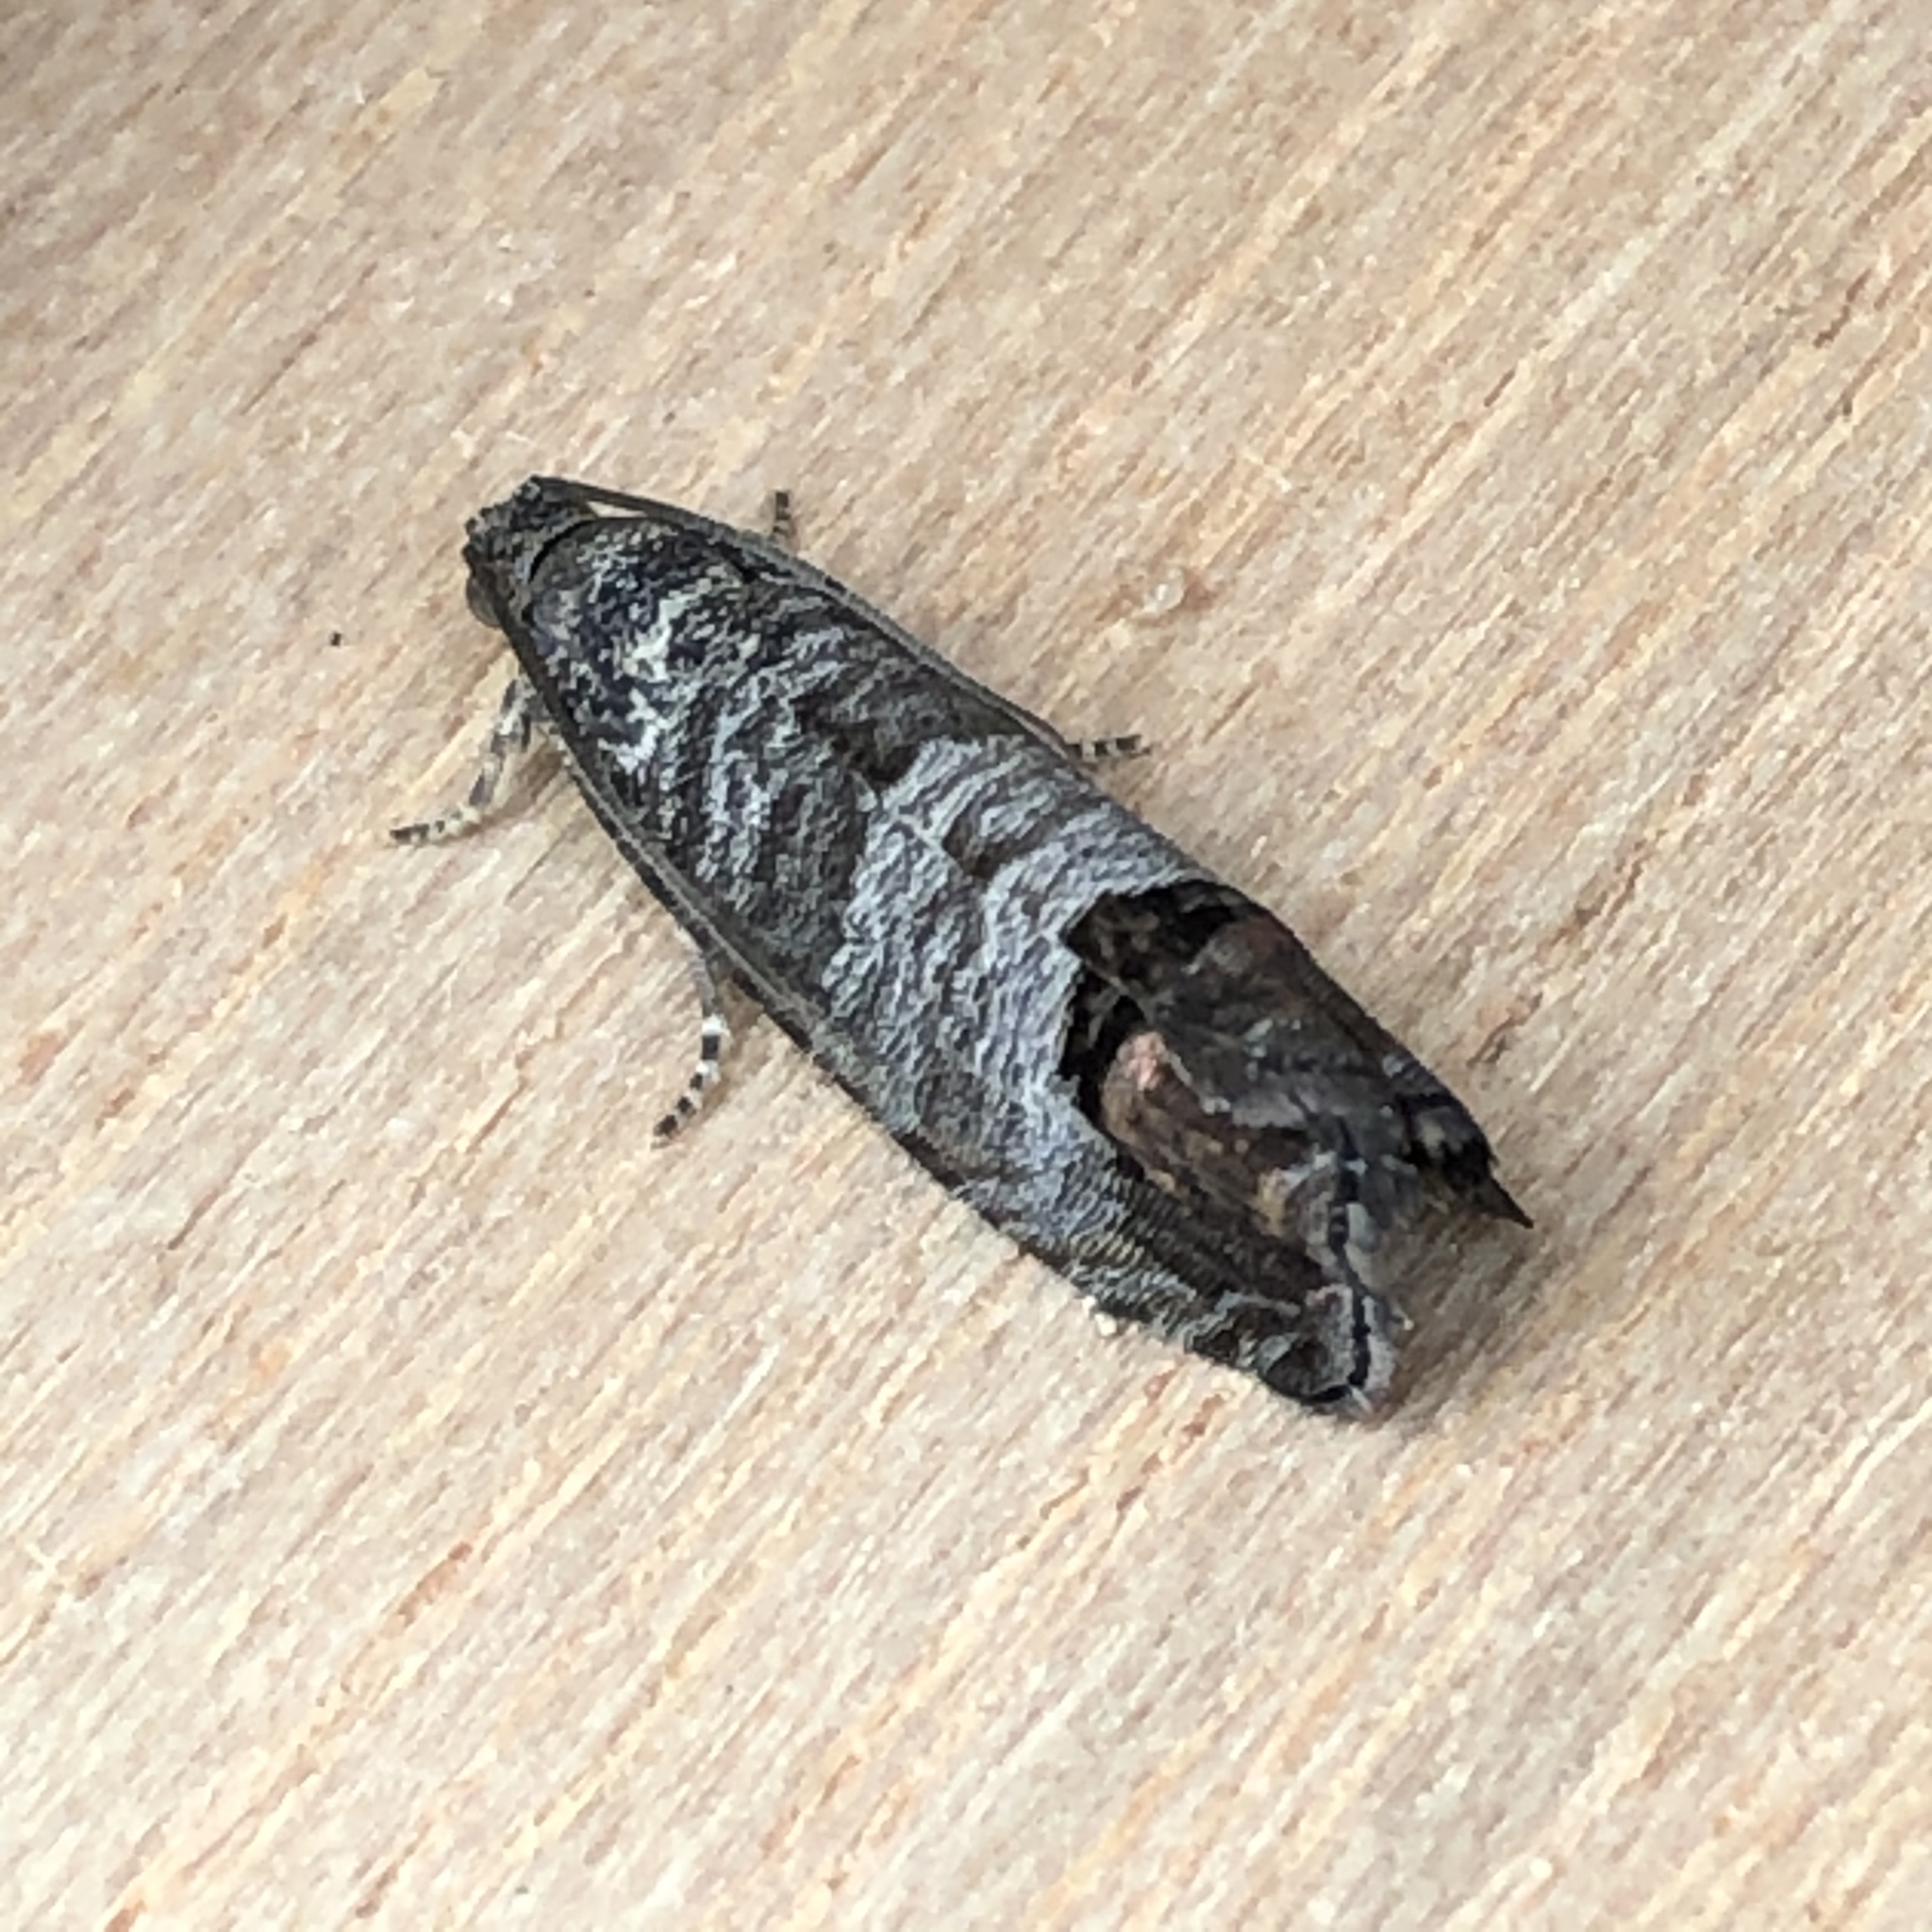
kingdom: Animalia
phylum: Arthropoda
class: Insecta
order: Lepidoptera
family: Tortricidae
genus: Cydia
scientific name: Cydia pomonella
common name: Codling moth
